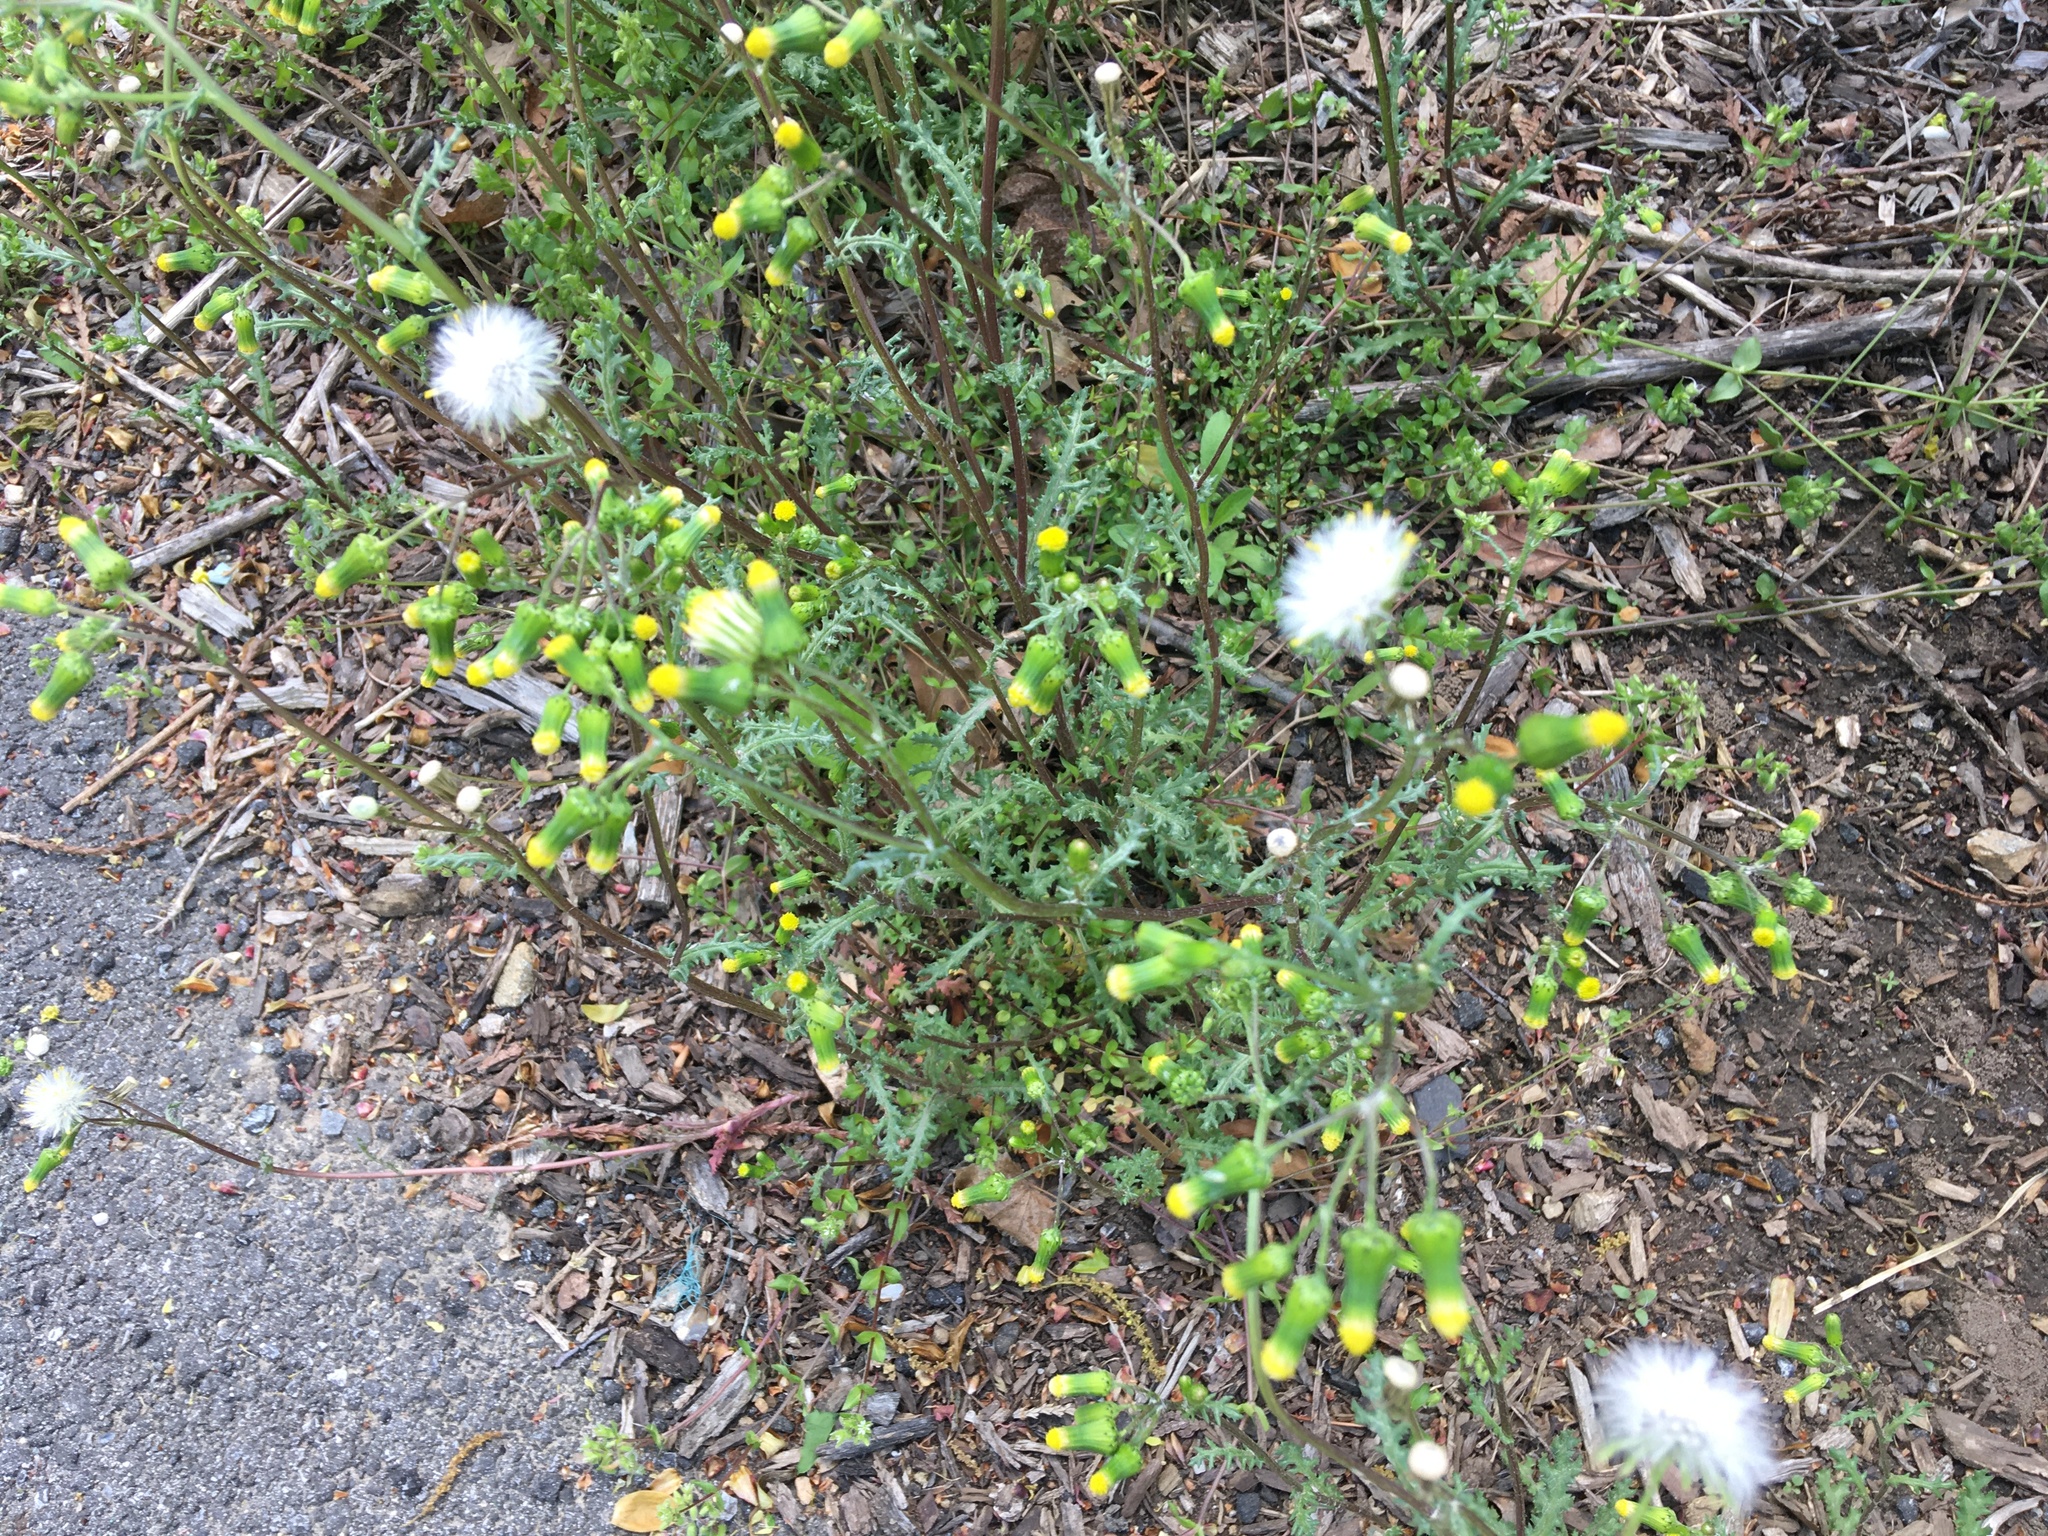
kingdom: Plantae
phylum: Tracheophyta
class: Magnoliopsida
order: Asterales
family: Asteraceae
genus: Senecio
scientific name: Senecio vulgaris
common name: Old-man-in-the-spring
